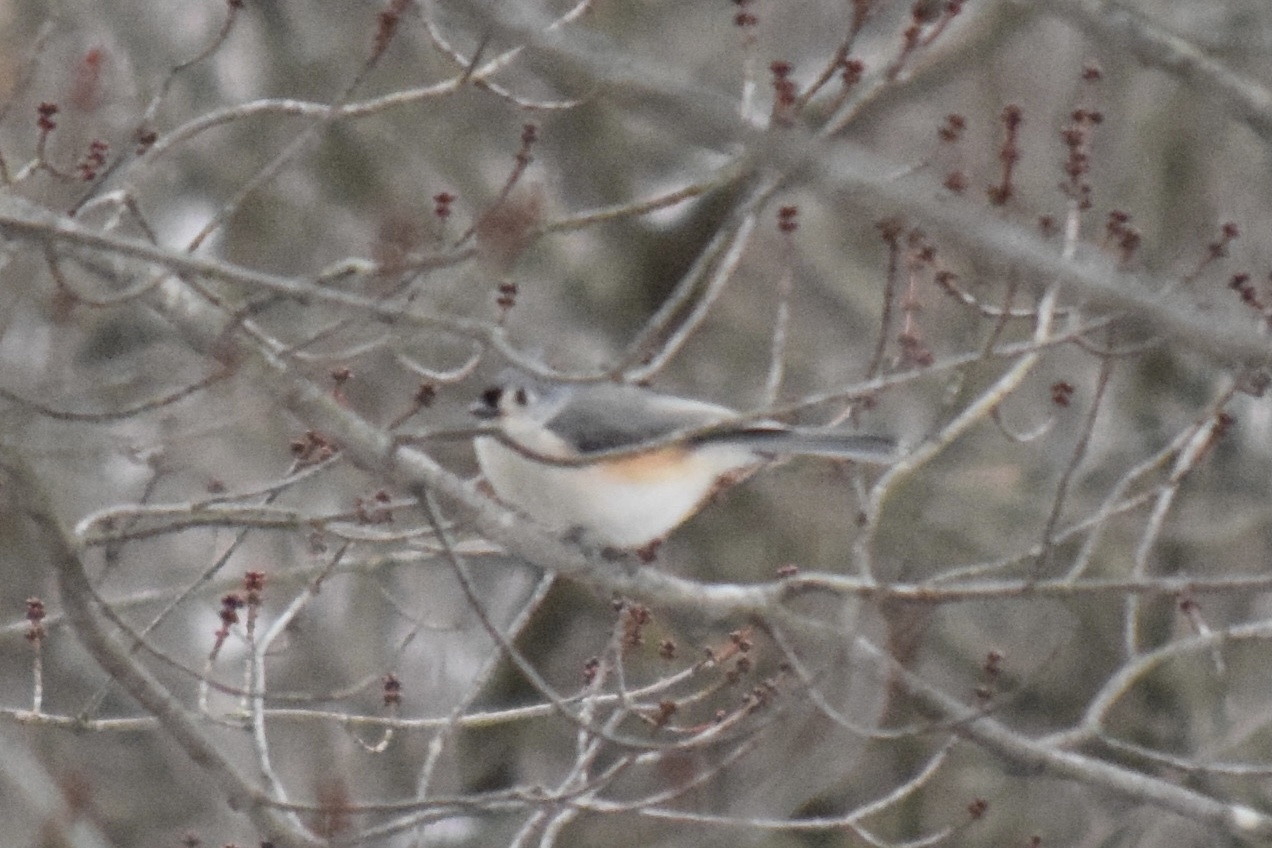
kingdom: Animalia
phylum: Chordata
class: Aves
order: Passeriformes
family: Paridae
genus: Baeolophus
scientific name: Baeolophus bicolor
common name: Tufted titmouse
